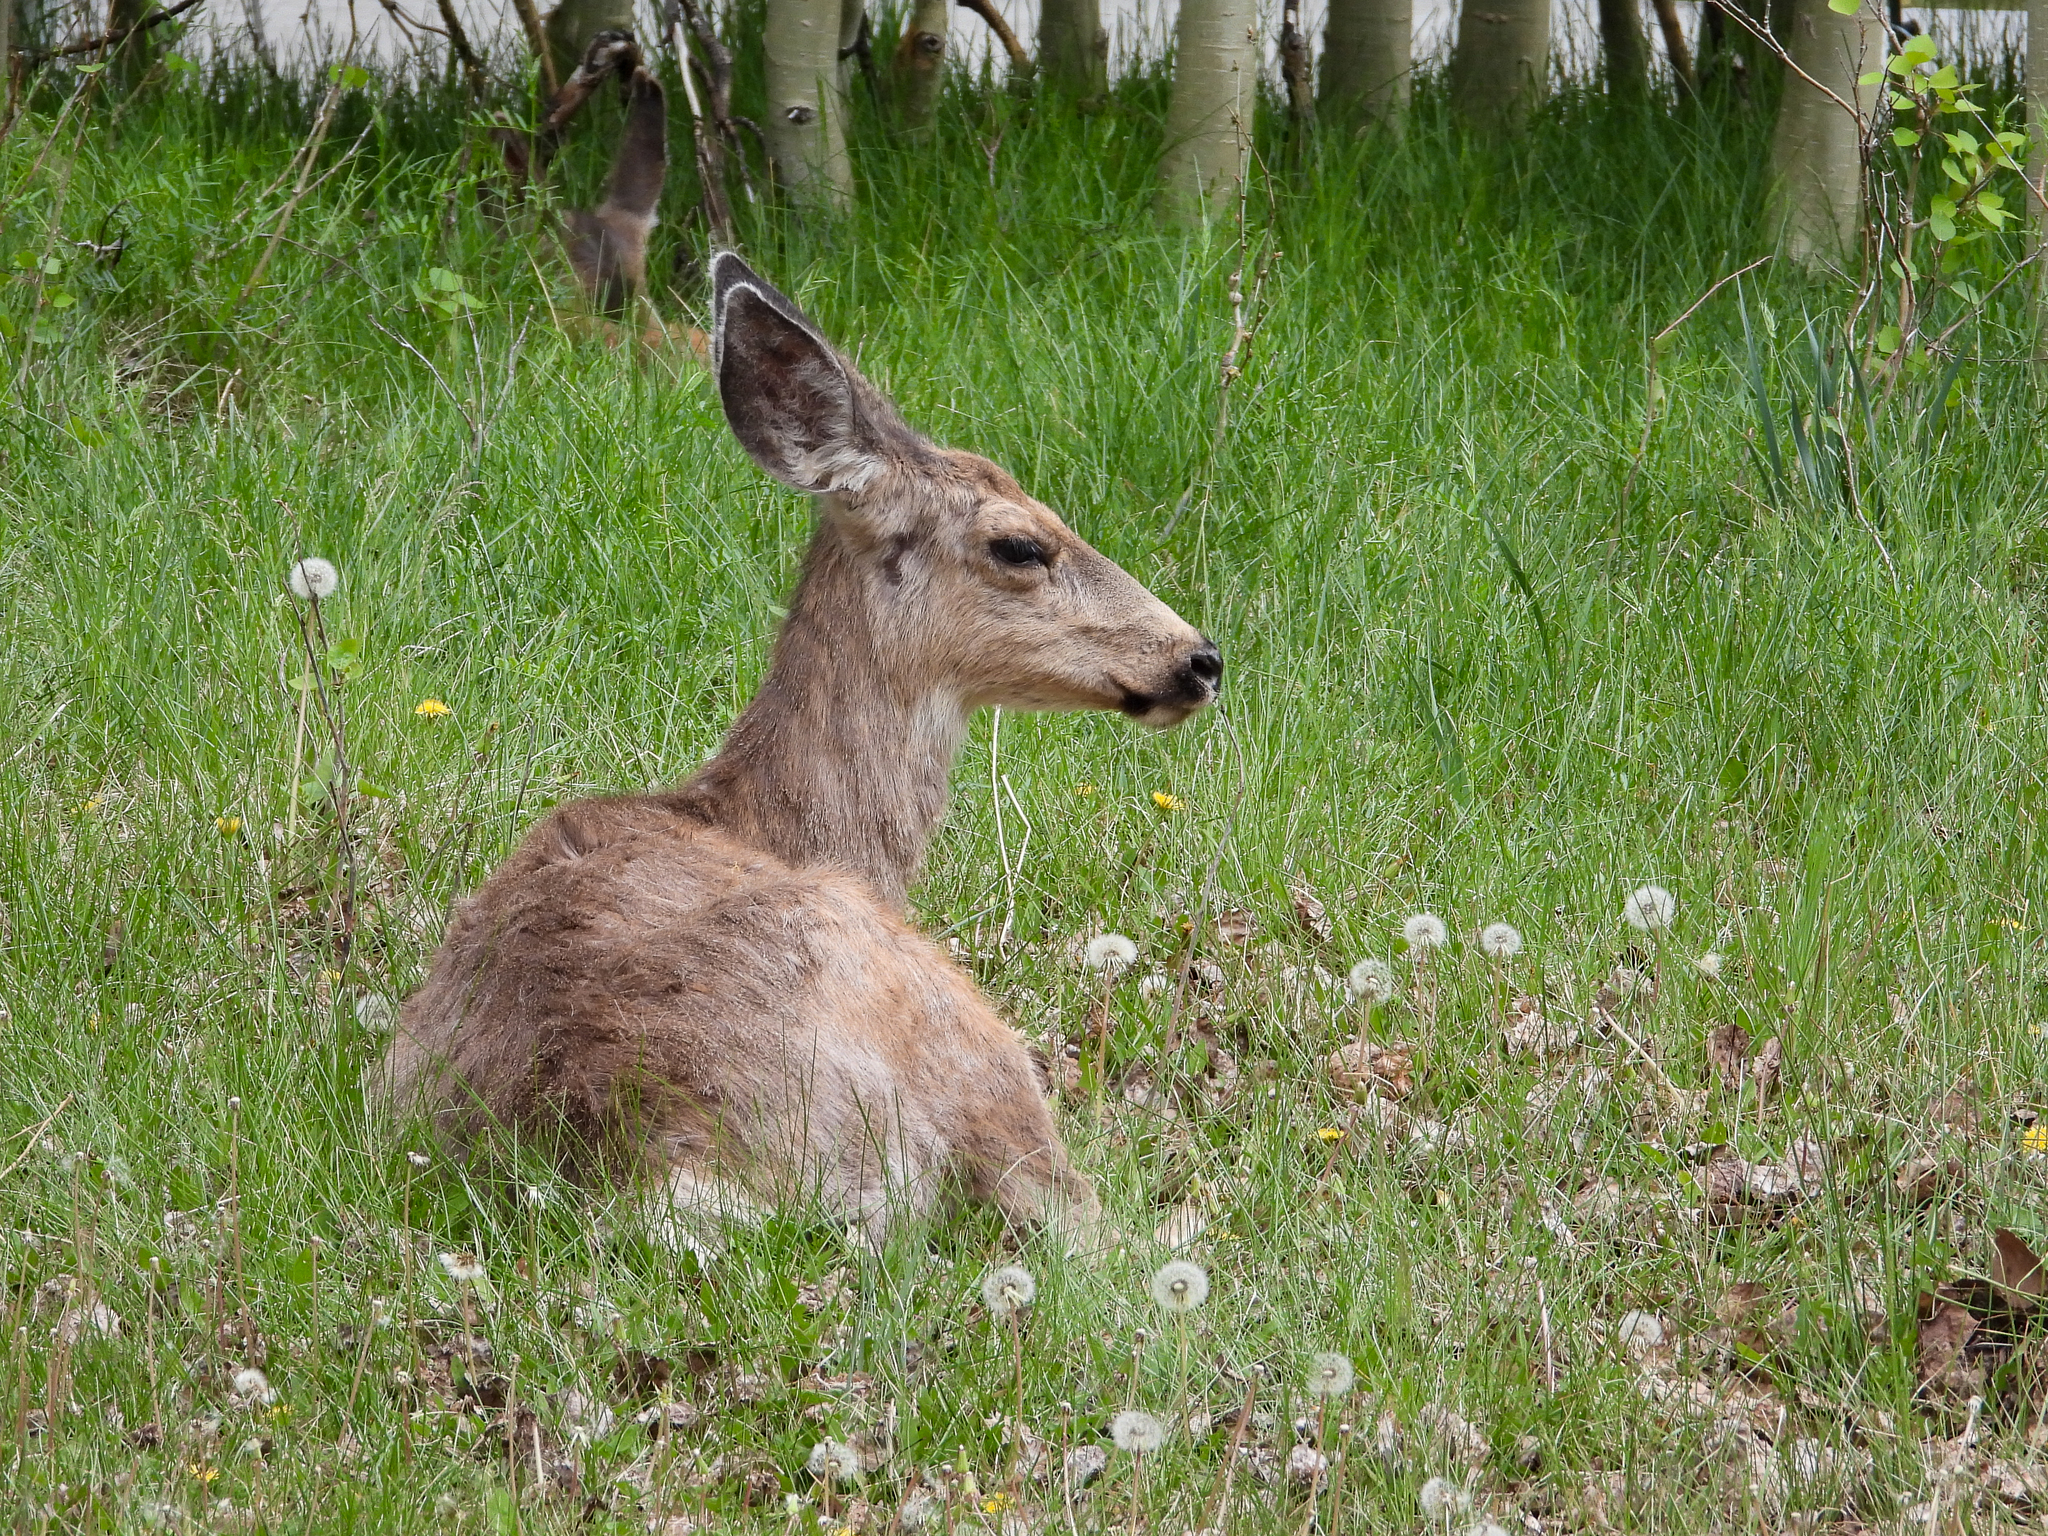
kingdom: Animalia
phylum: Chordata
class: Mammalia
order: Artiodactyla
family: Cervidae
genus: Odocoileus
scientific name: Odocoileus hemionus
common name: Mule deer
